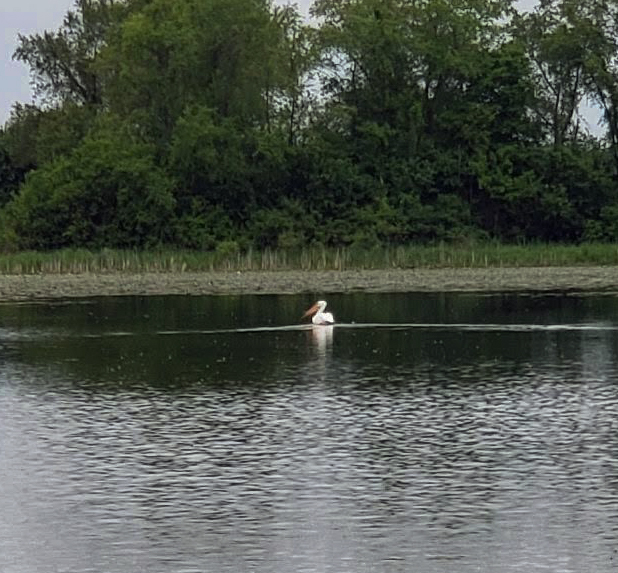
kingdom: Animalia
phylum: Chordata
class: Aves
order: Pelecaniformes
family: Pelecanidae
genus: Pelecanus
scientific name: Pelecanus erythrorhynchos
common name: American white pelican
